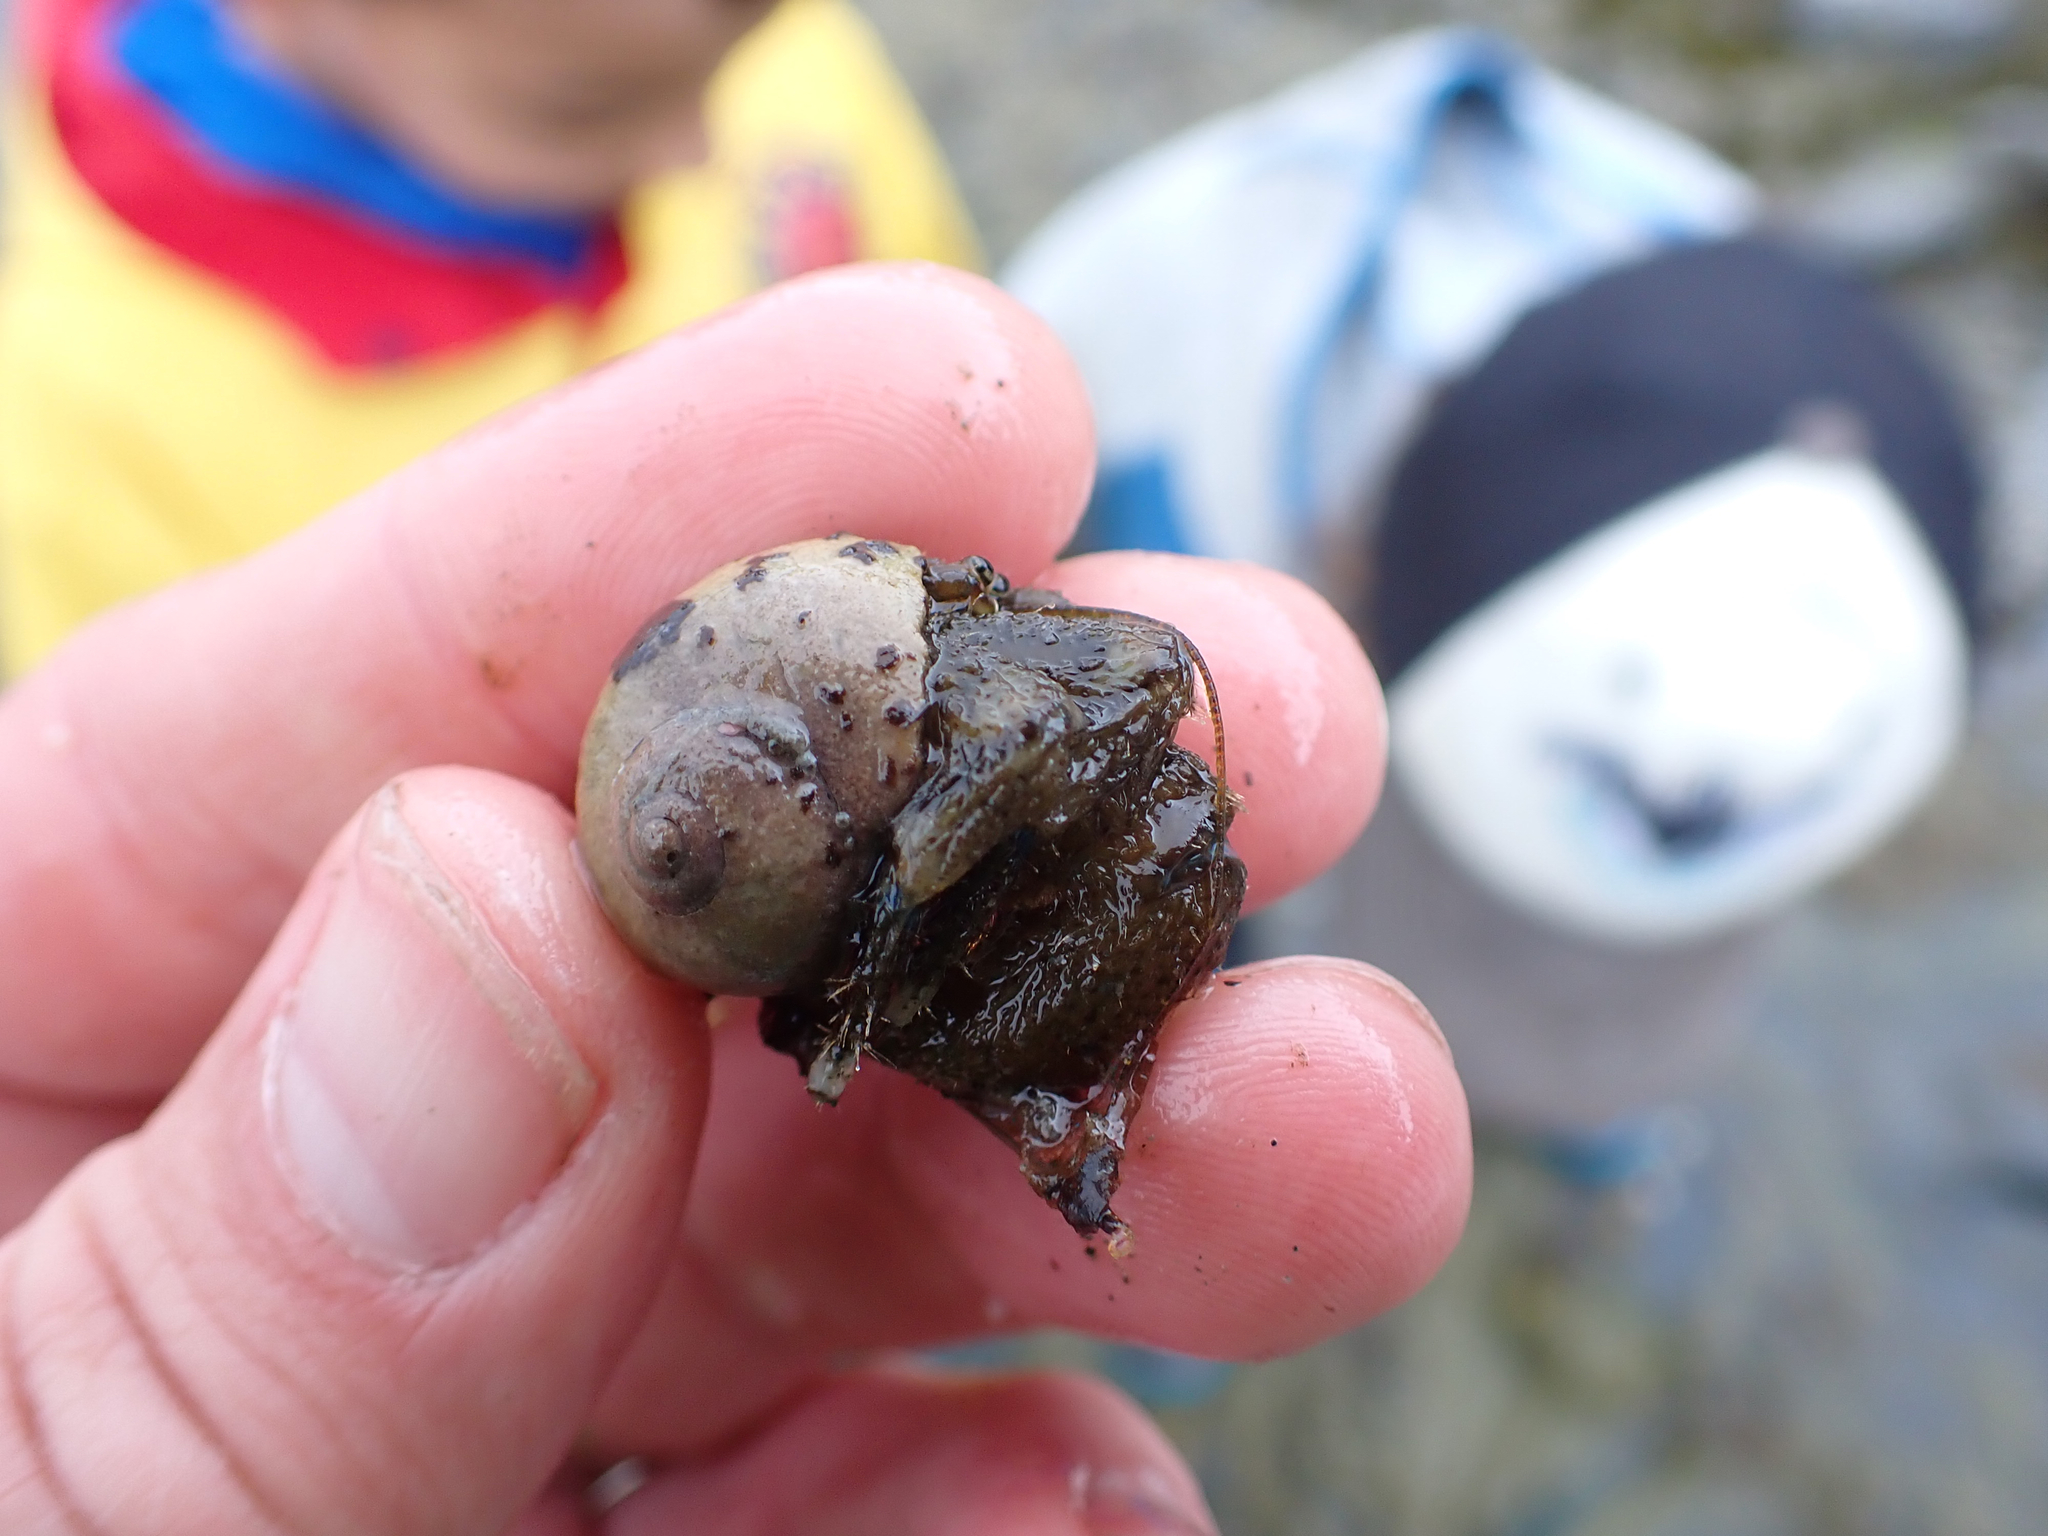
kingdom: Animalia
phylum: Arthropoda
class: Malacostraca
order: Decapoda
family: Paguridae
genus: Pagurus
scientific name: Pagurus hirsutiusculus
